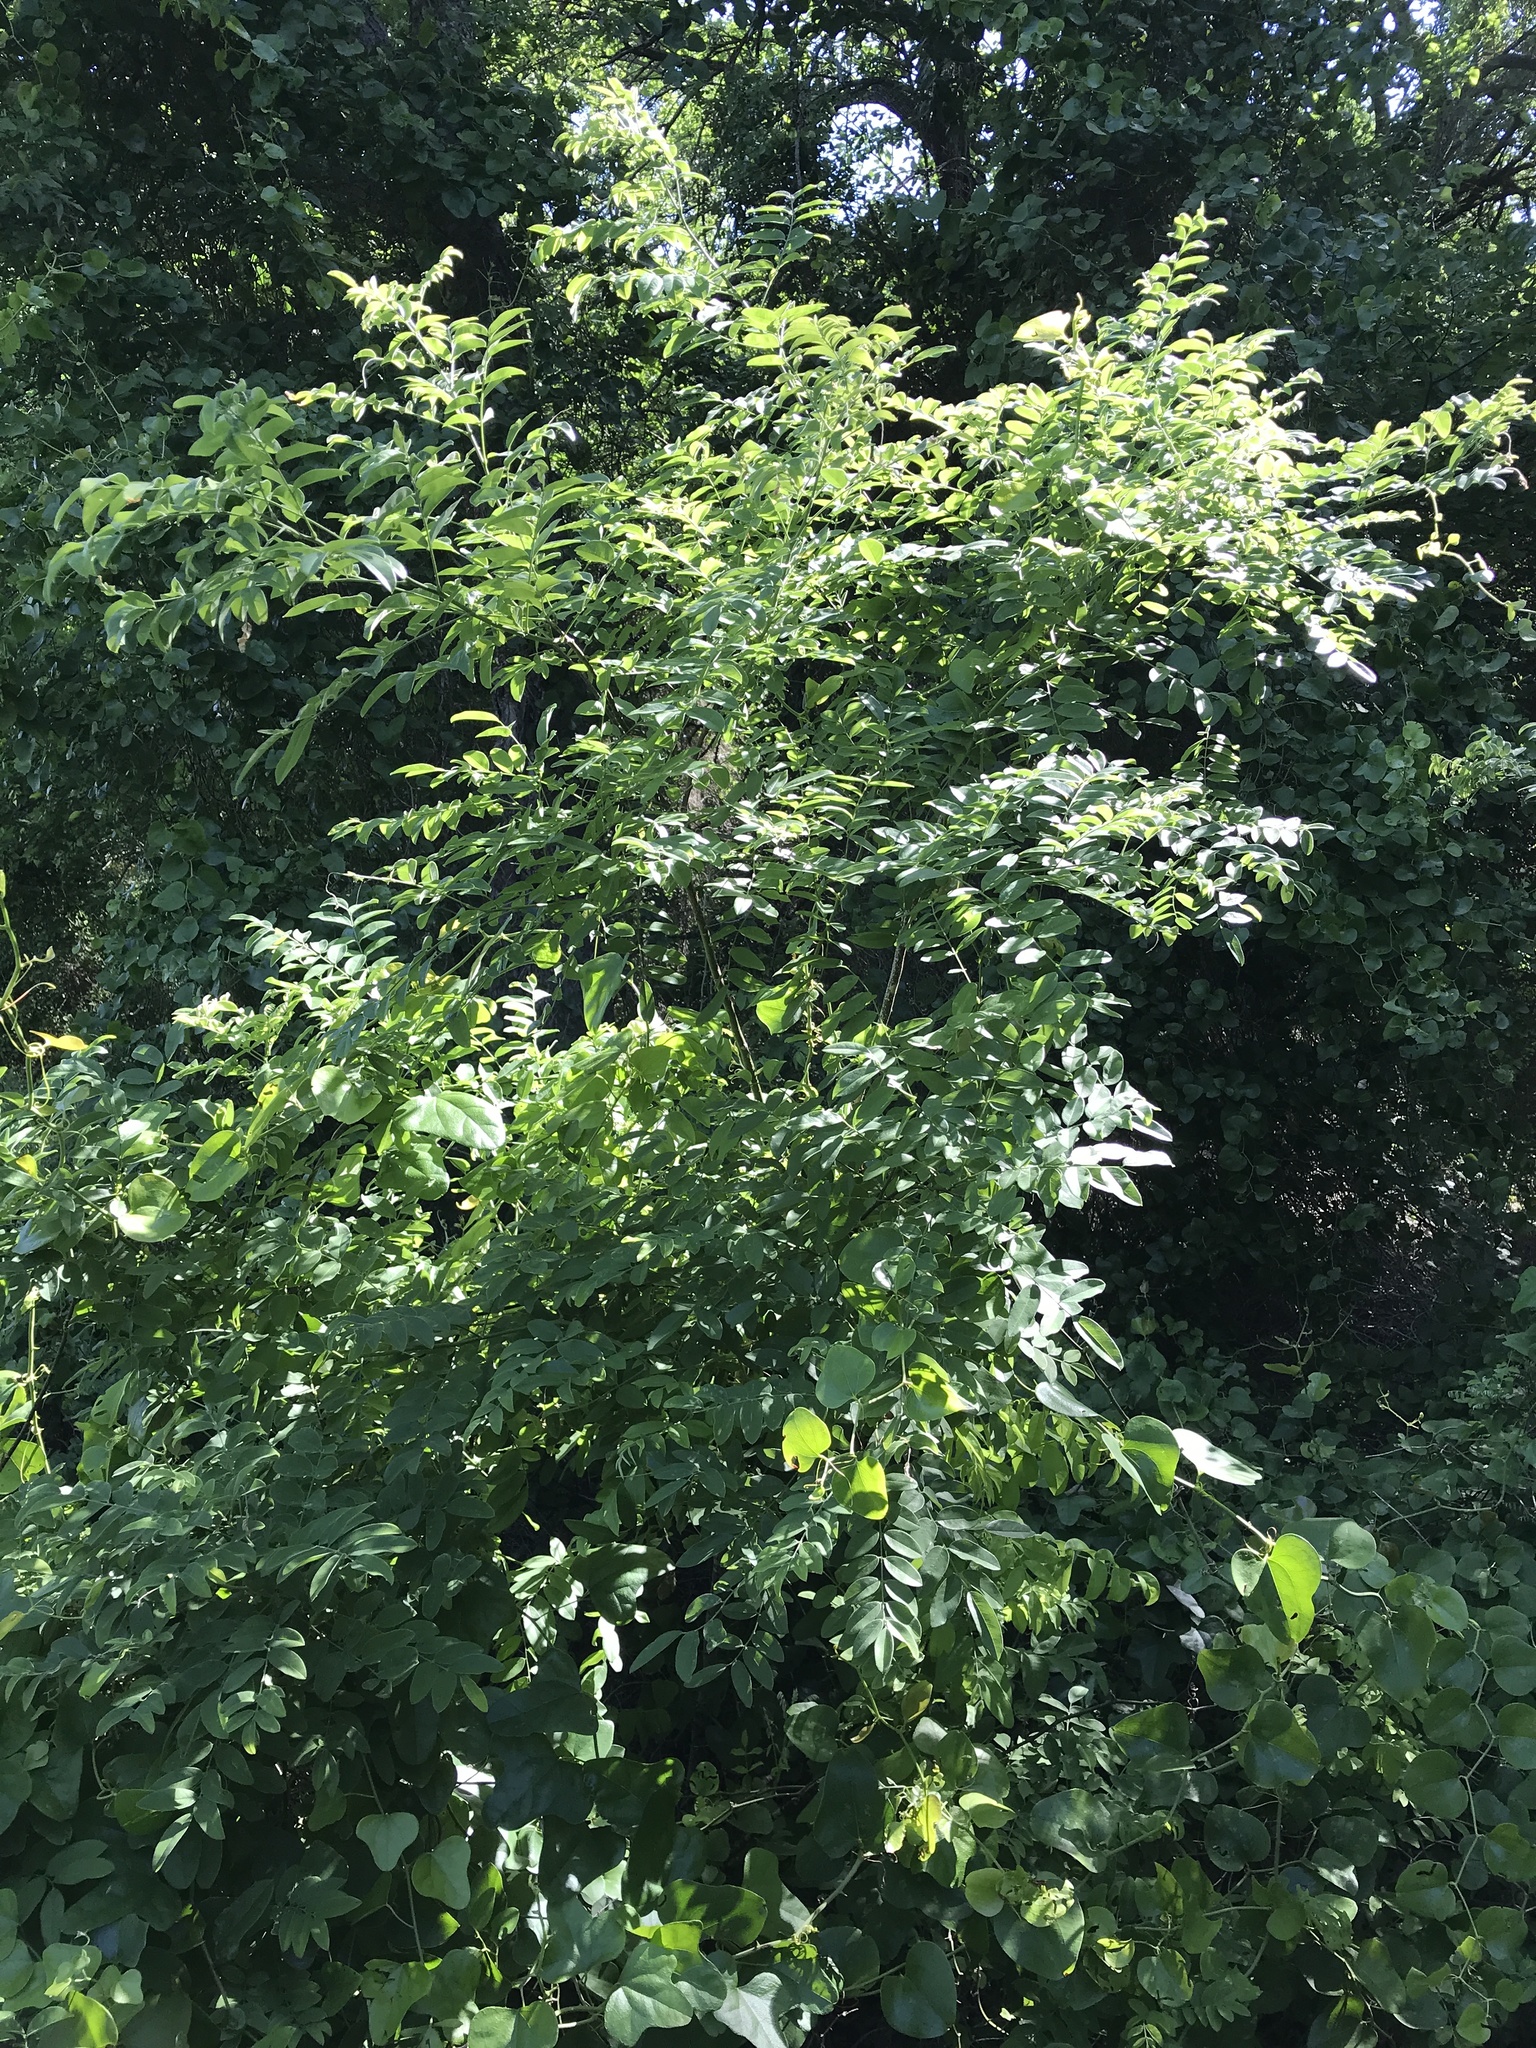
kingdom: Plantae
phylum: Tracheophyta
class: Magnoliopsida
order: Fabales
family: Fabaceae
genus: Styphnolobium
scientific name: Styphnolobium affine
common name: Texas sophora
